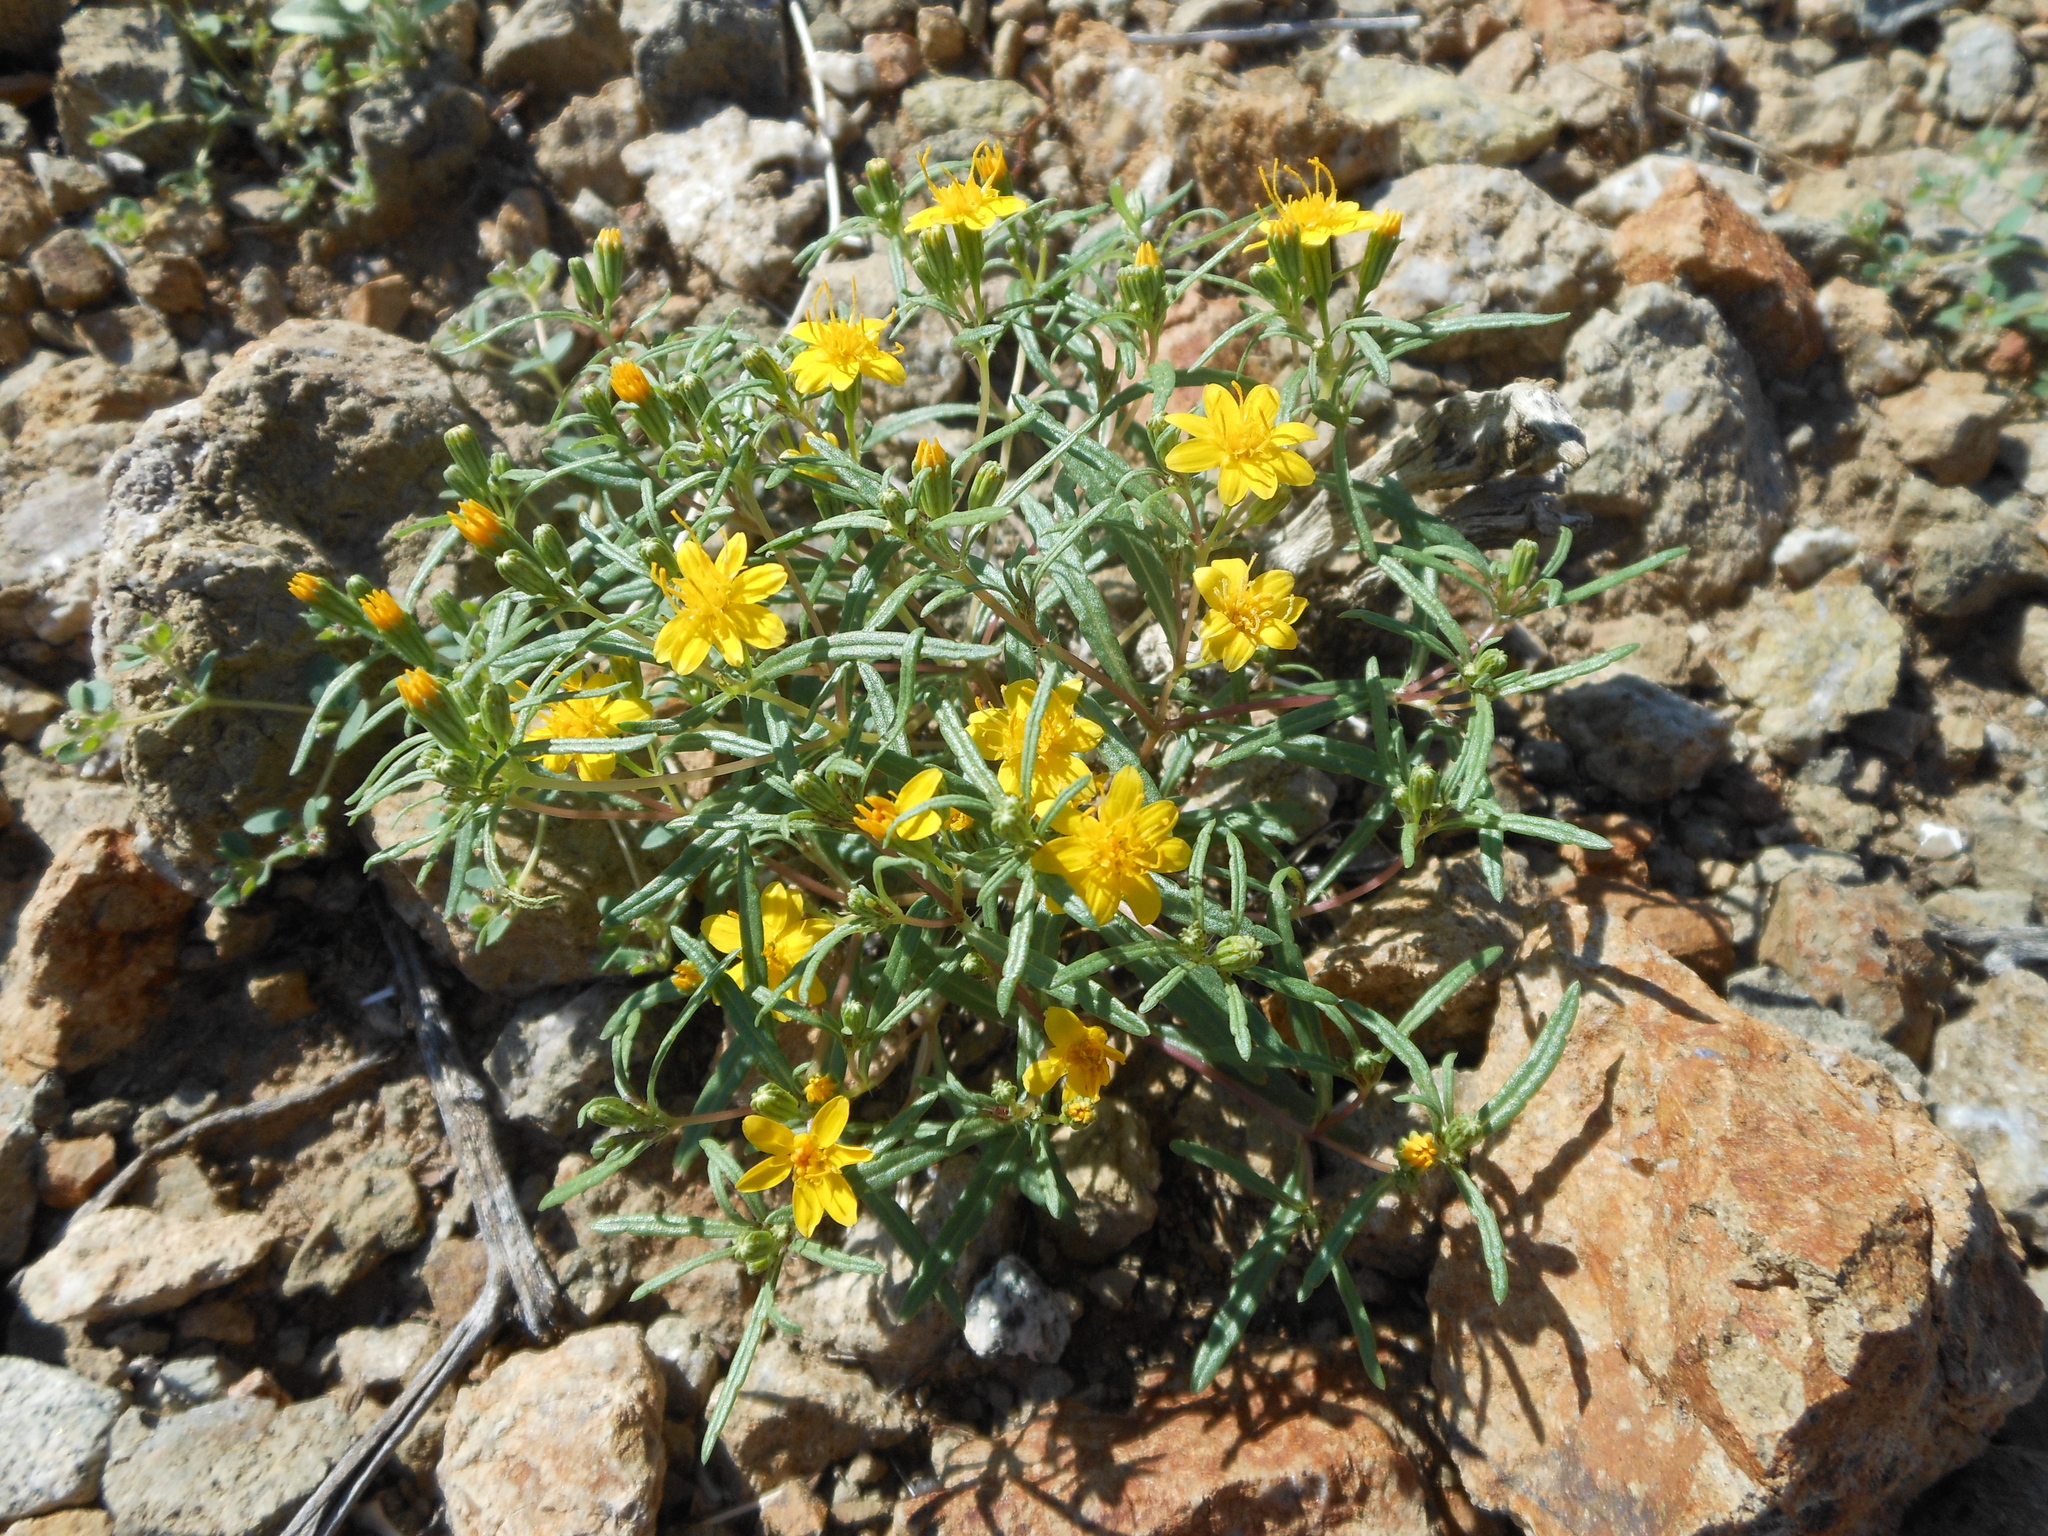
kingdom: Plantae
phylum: Tracheophyta
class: Magnoliopsida
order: Asterales
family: Asteraceae
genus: Pectis
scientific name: Pectis papposa
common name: Many-bristle chinchweed
